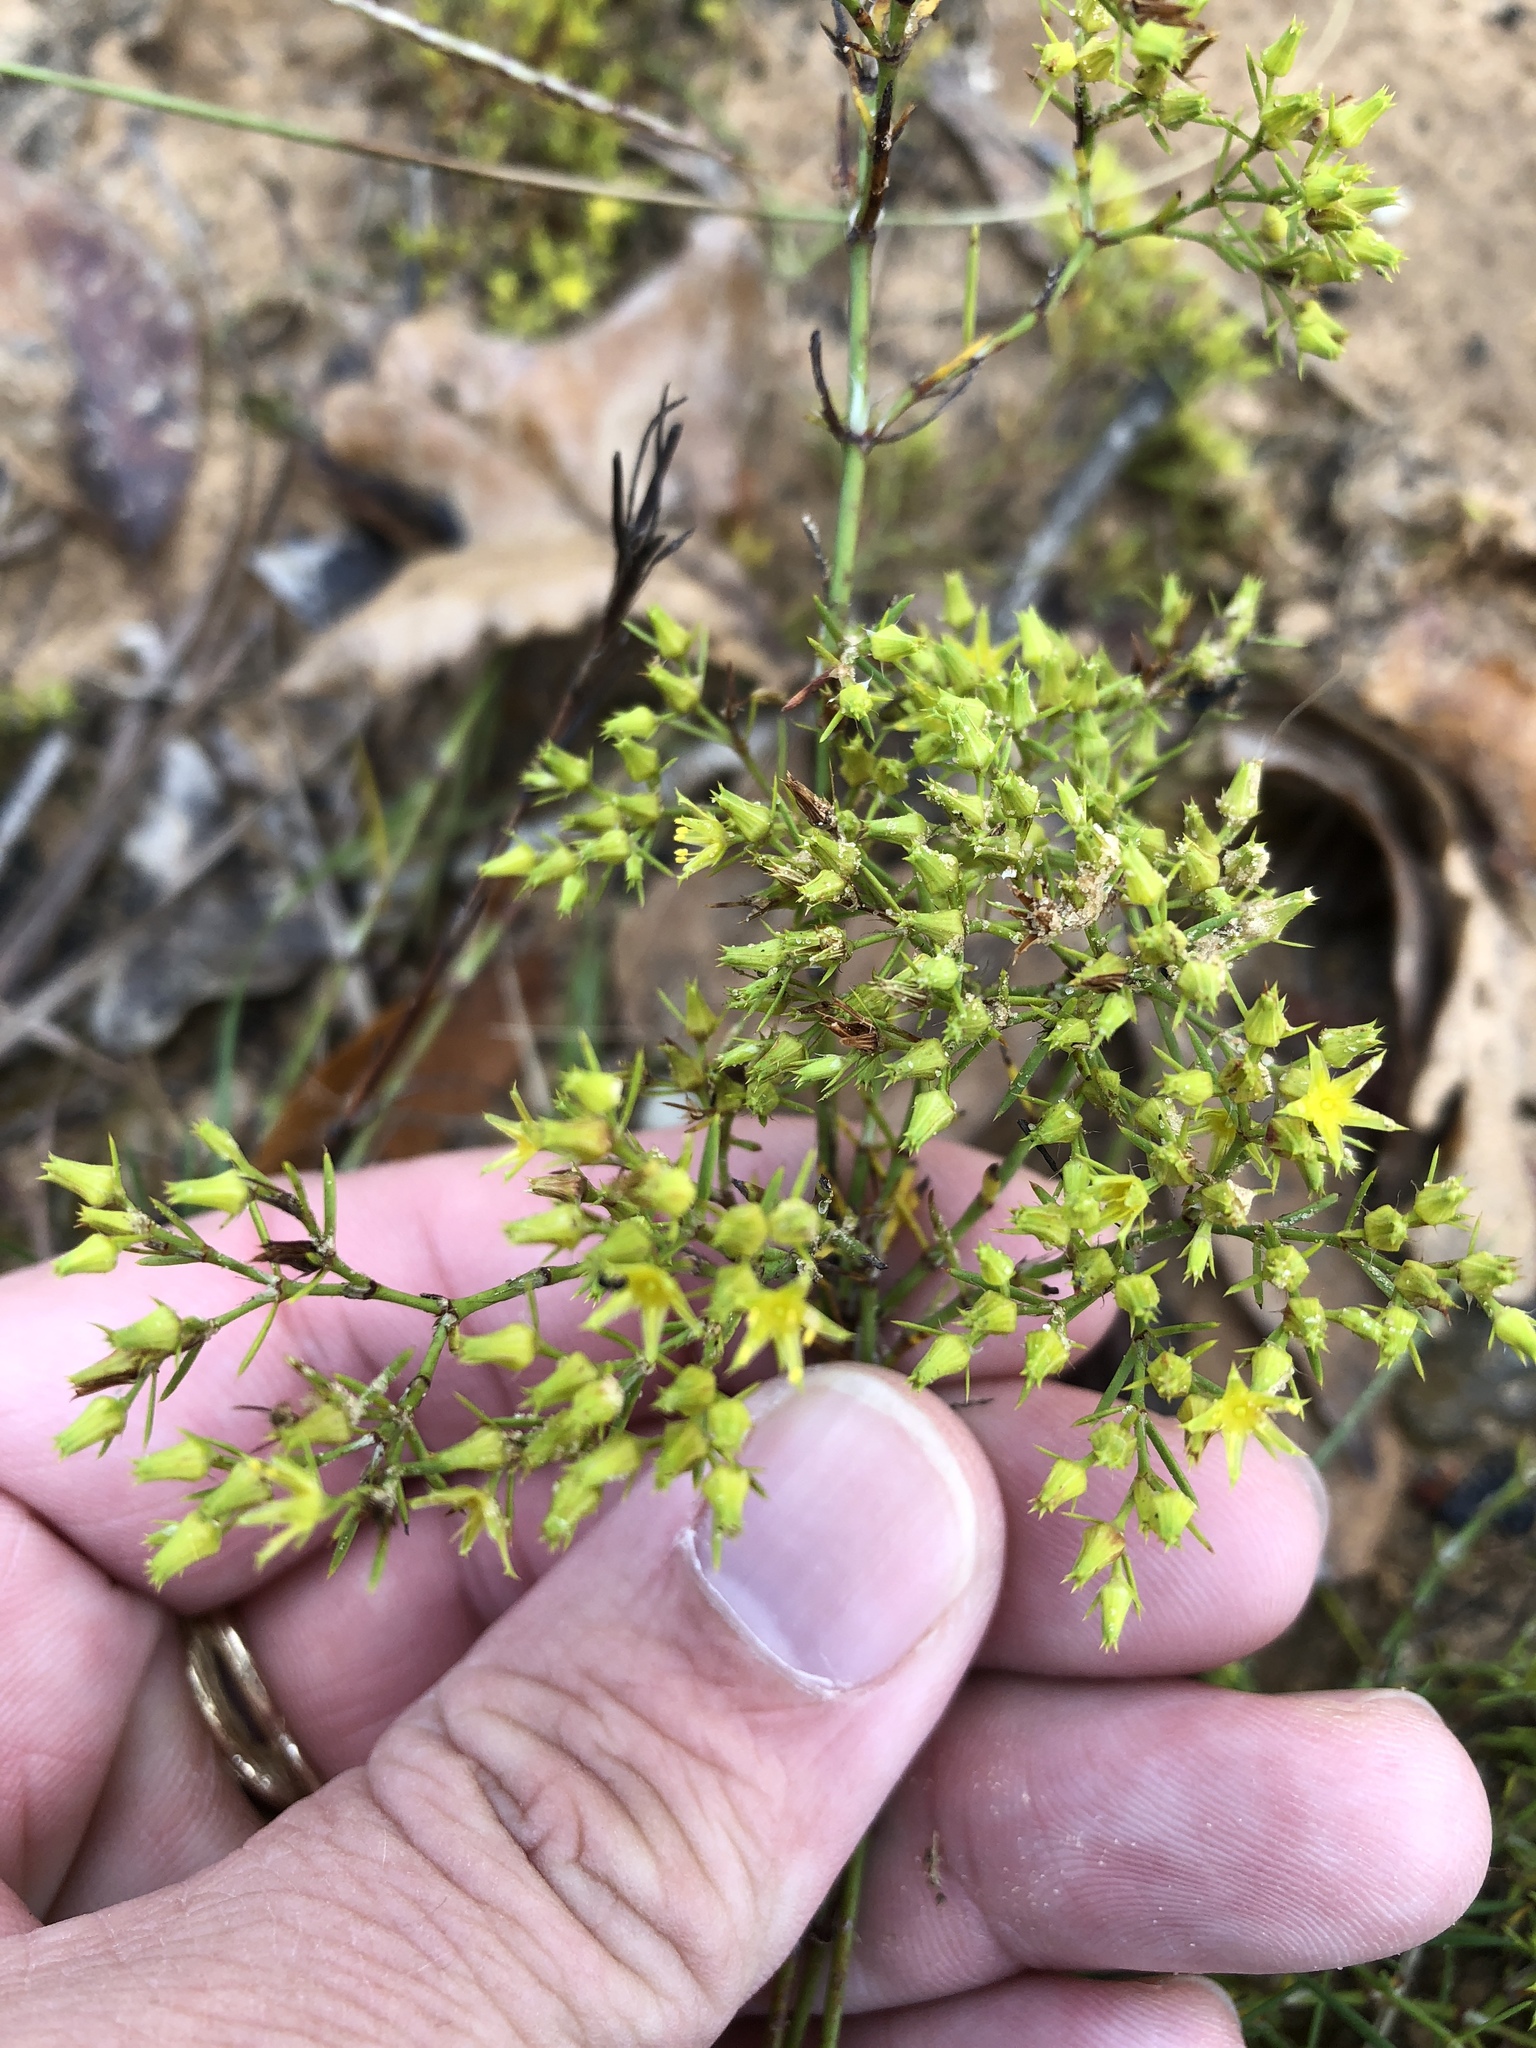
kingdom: Plantae
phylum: Tracheophyta
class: Magnoliopsida
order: Caryophyllales
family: Caryophyllaceae
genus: Paronychia
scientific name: Paronychia virginica
